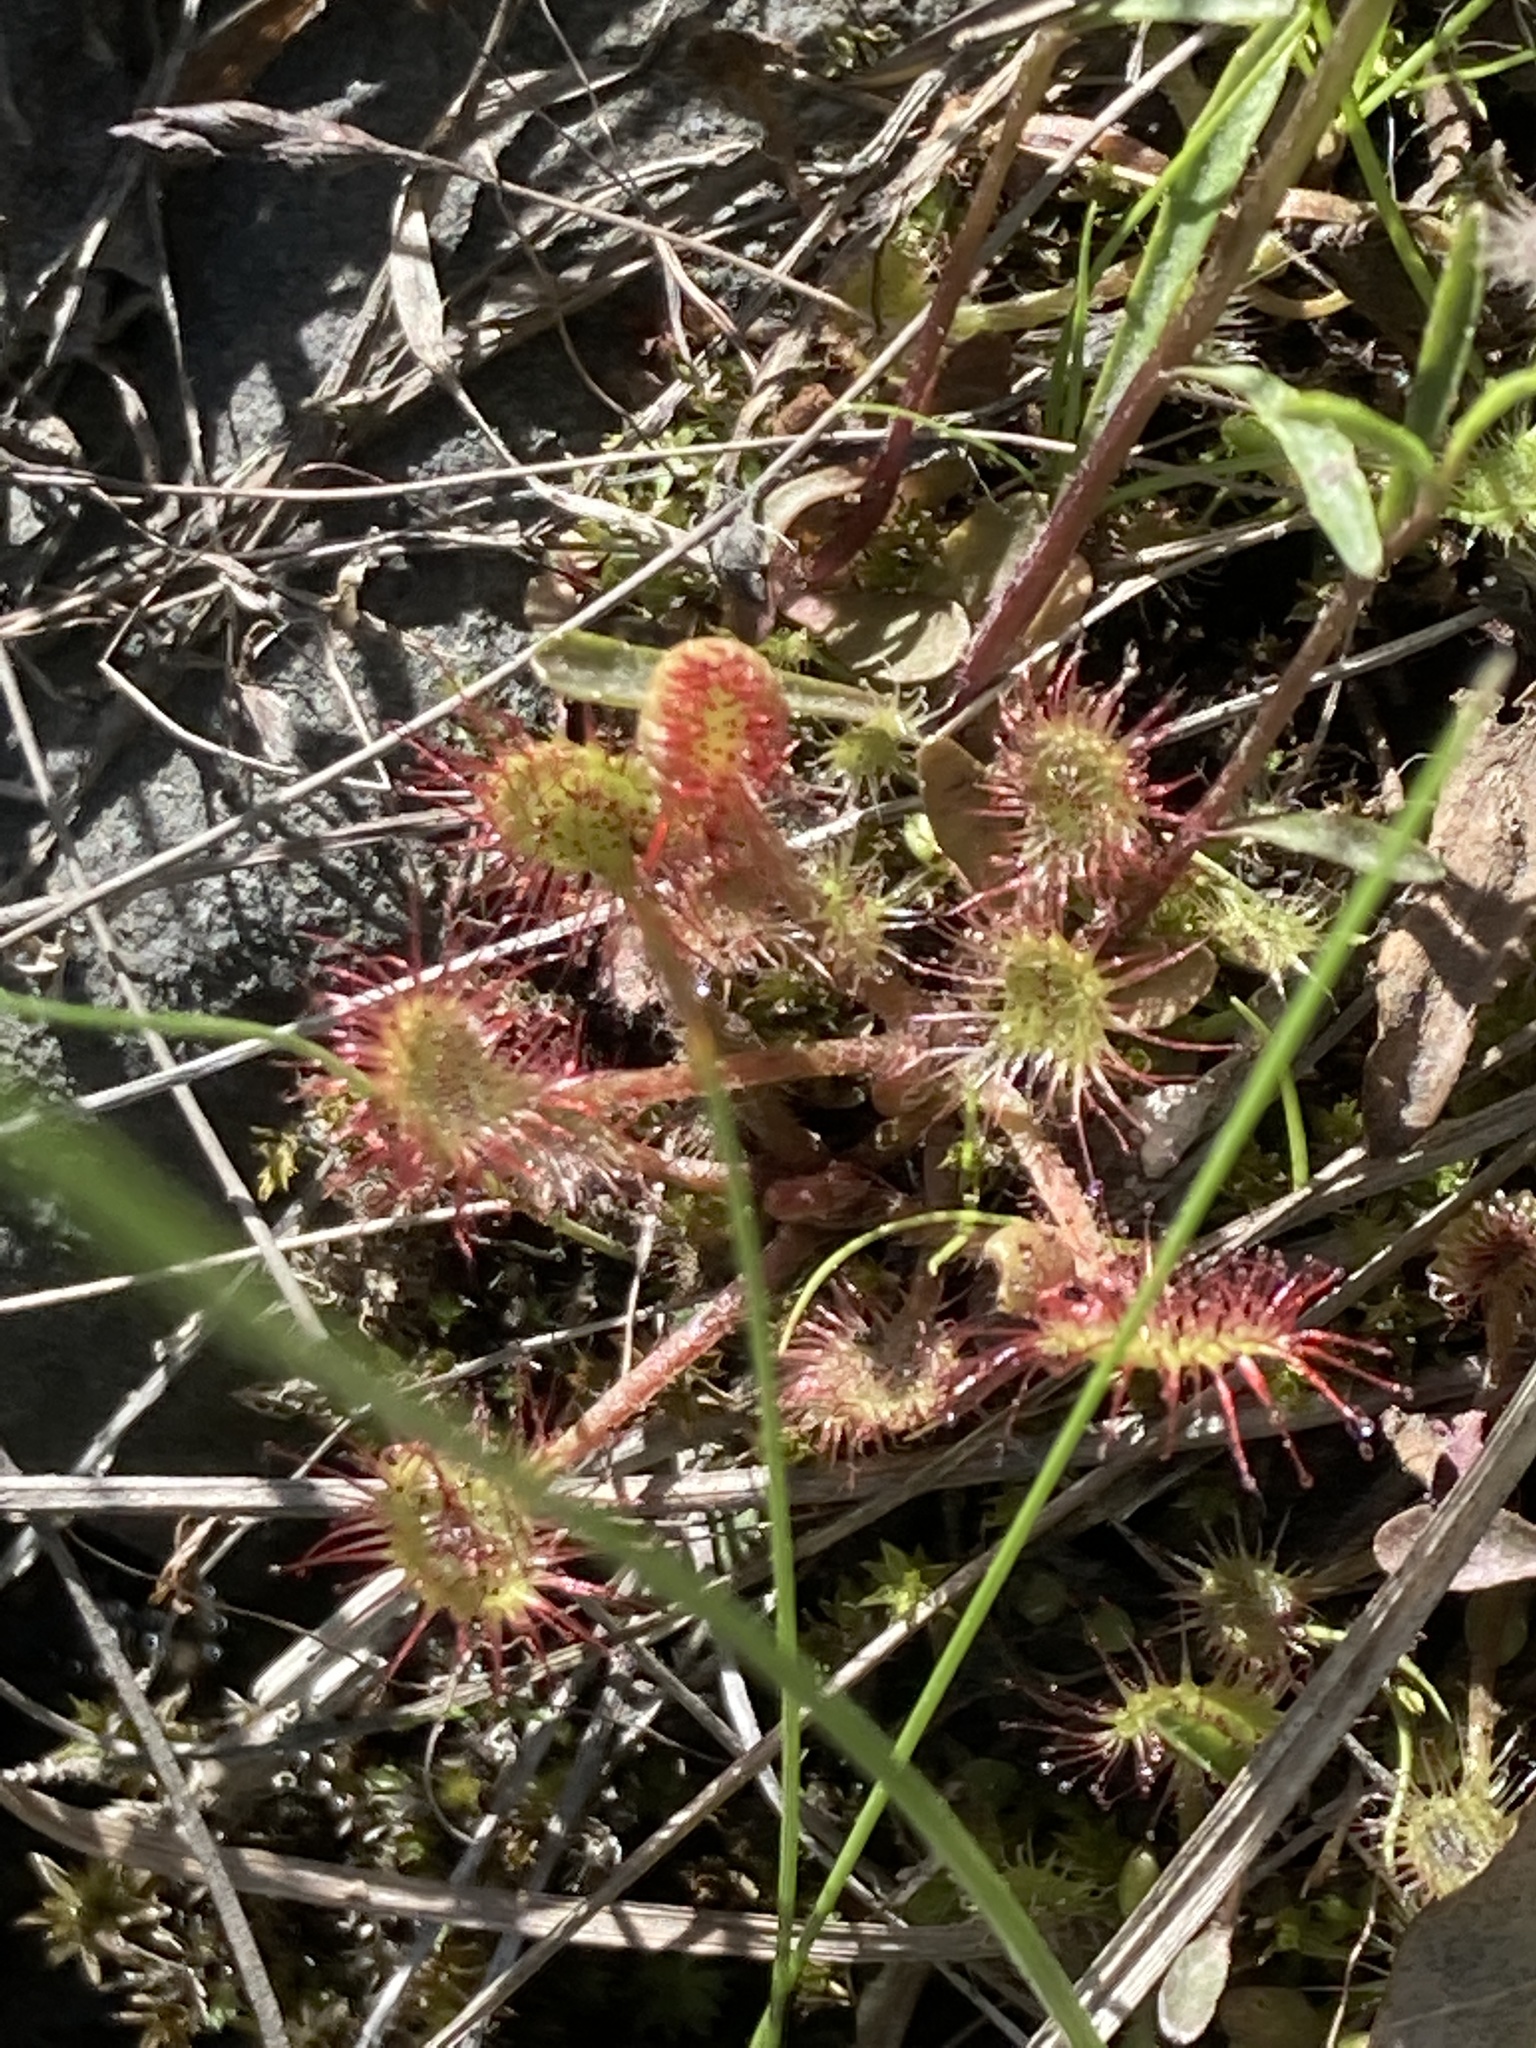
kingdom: Plantae
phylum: Tracheophyta
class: Magnoliopsida
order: Caryophyllales
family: Droseraceae
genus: Drosera
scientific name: Drosera rotundifolia
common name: Round-leaved sundew
